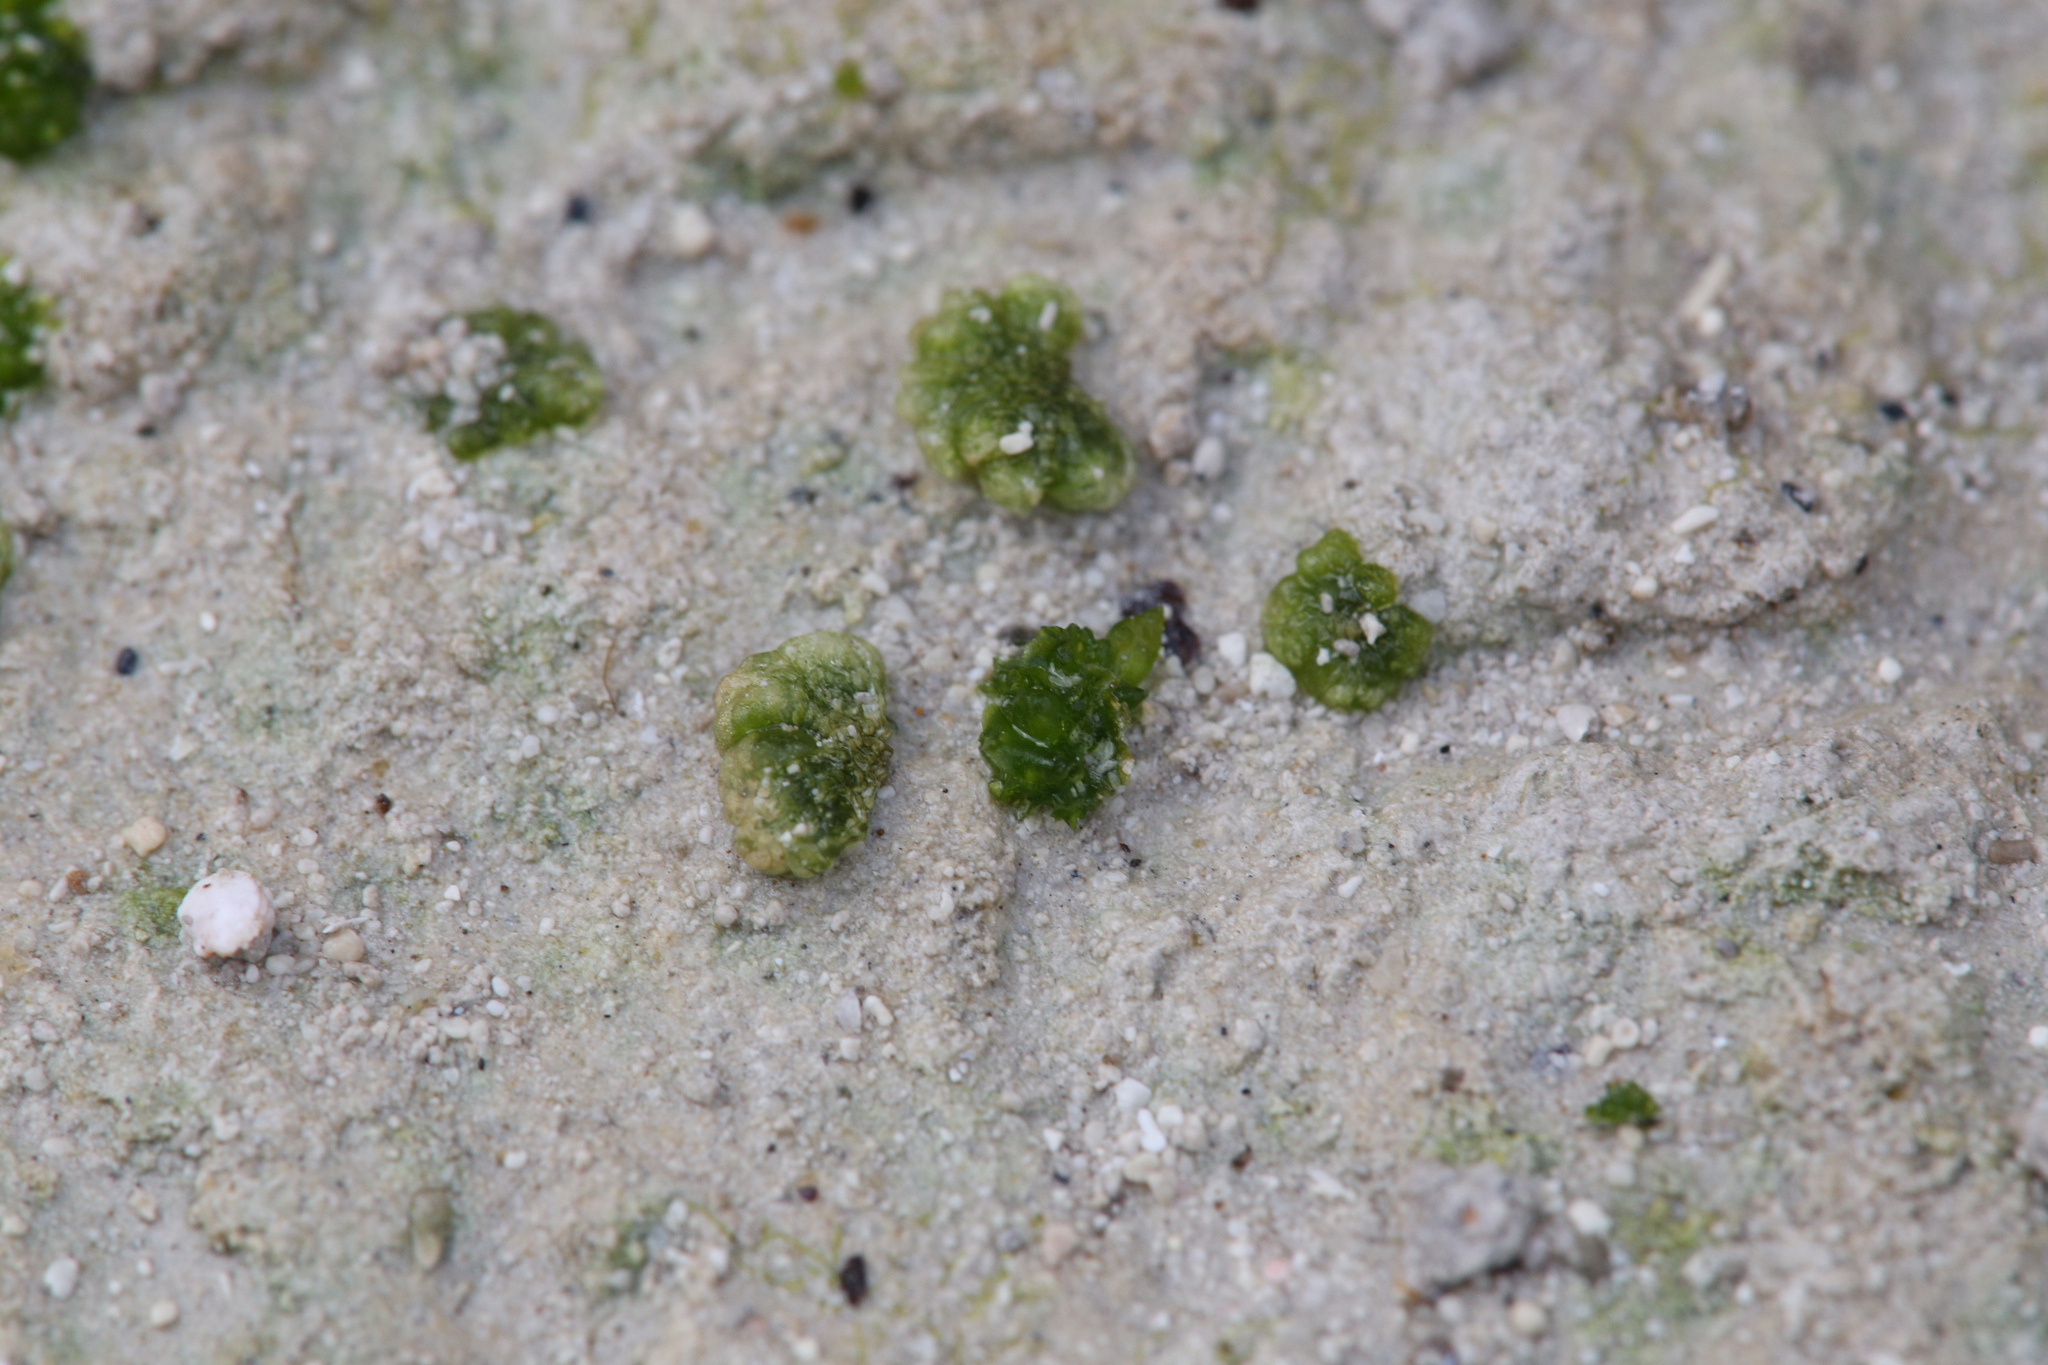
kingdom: Plantae
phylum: Marchantiophyta
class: Marchantiopsida
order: Sphaerocarpales
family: Riellaceae
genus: Austroriella
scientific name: Austroriella salta
